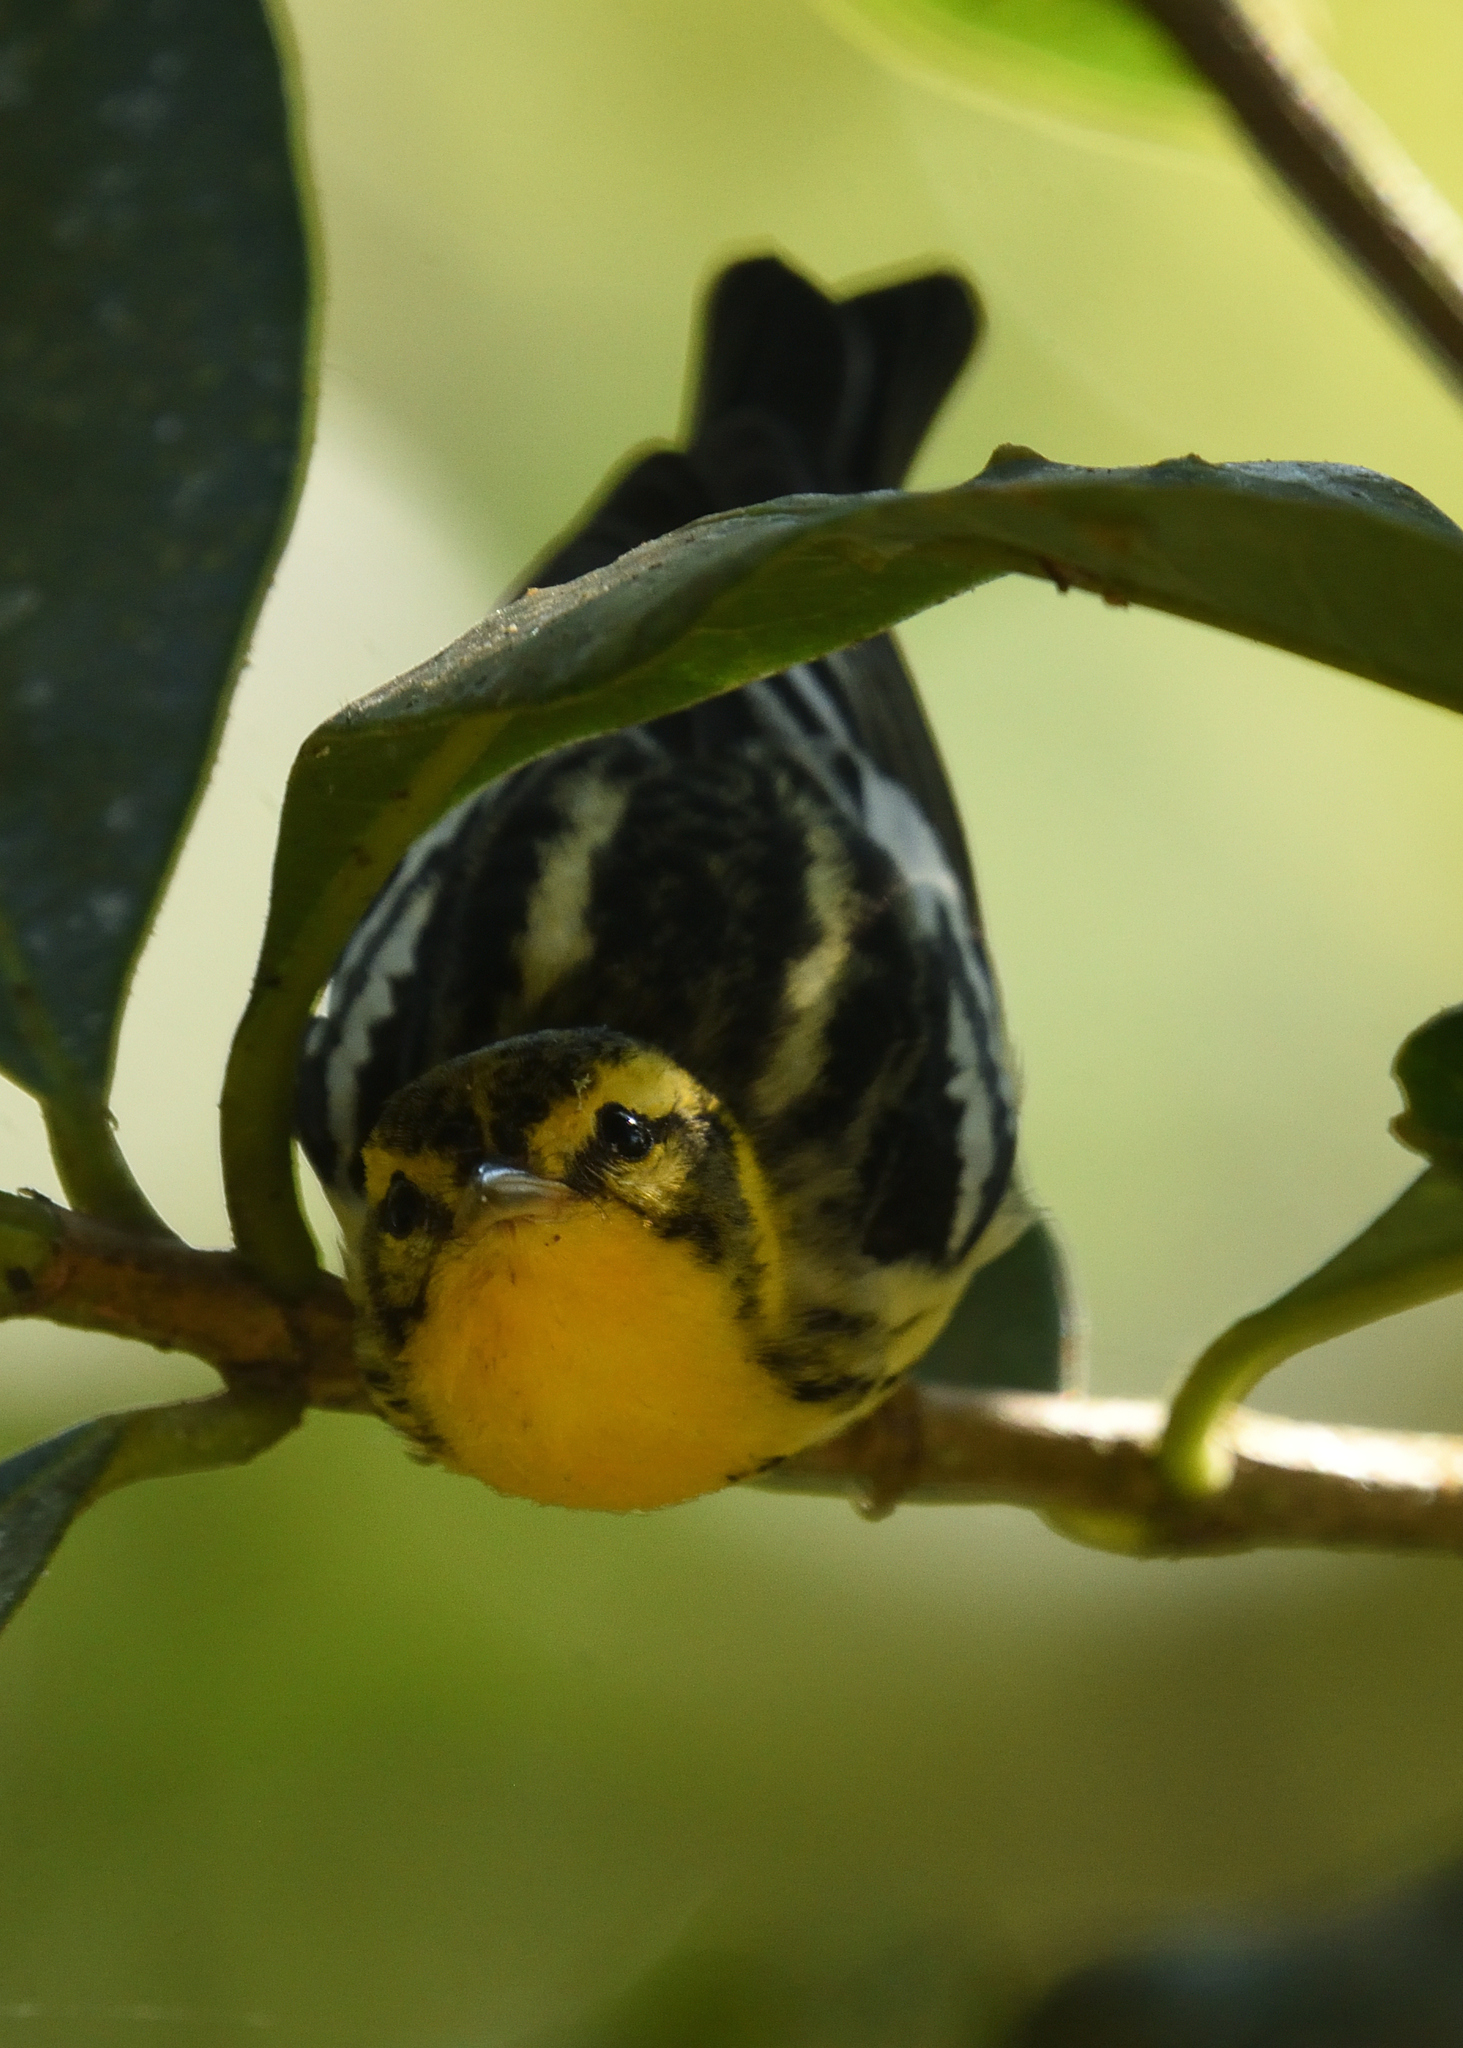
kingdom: Animalia
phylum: Chordata
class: Aves
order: Passeriformes
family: Parulidae
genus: Setophaga
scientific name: Setophaga fusca
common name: Blackburnian warbler
